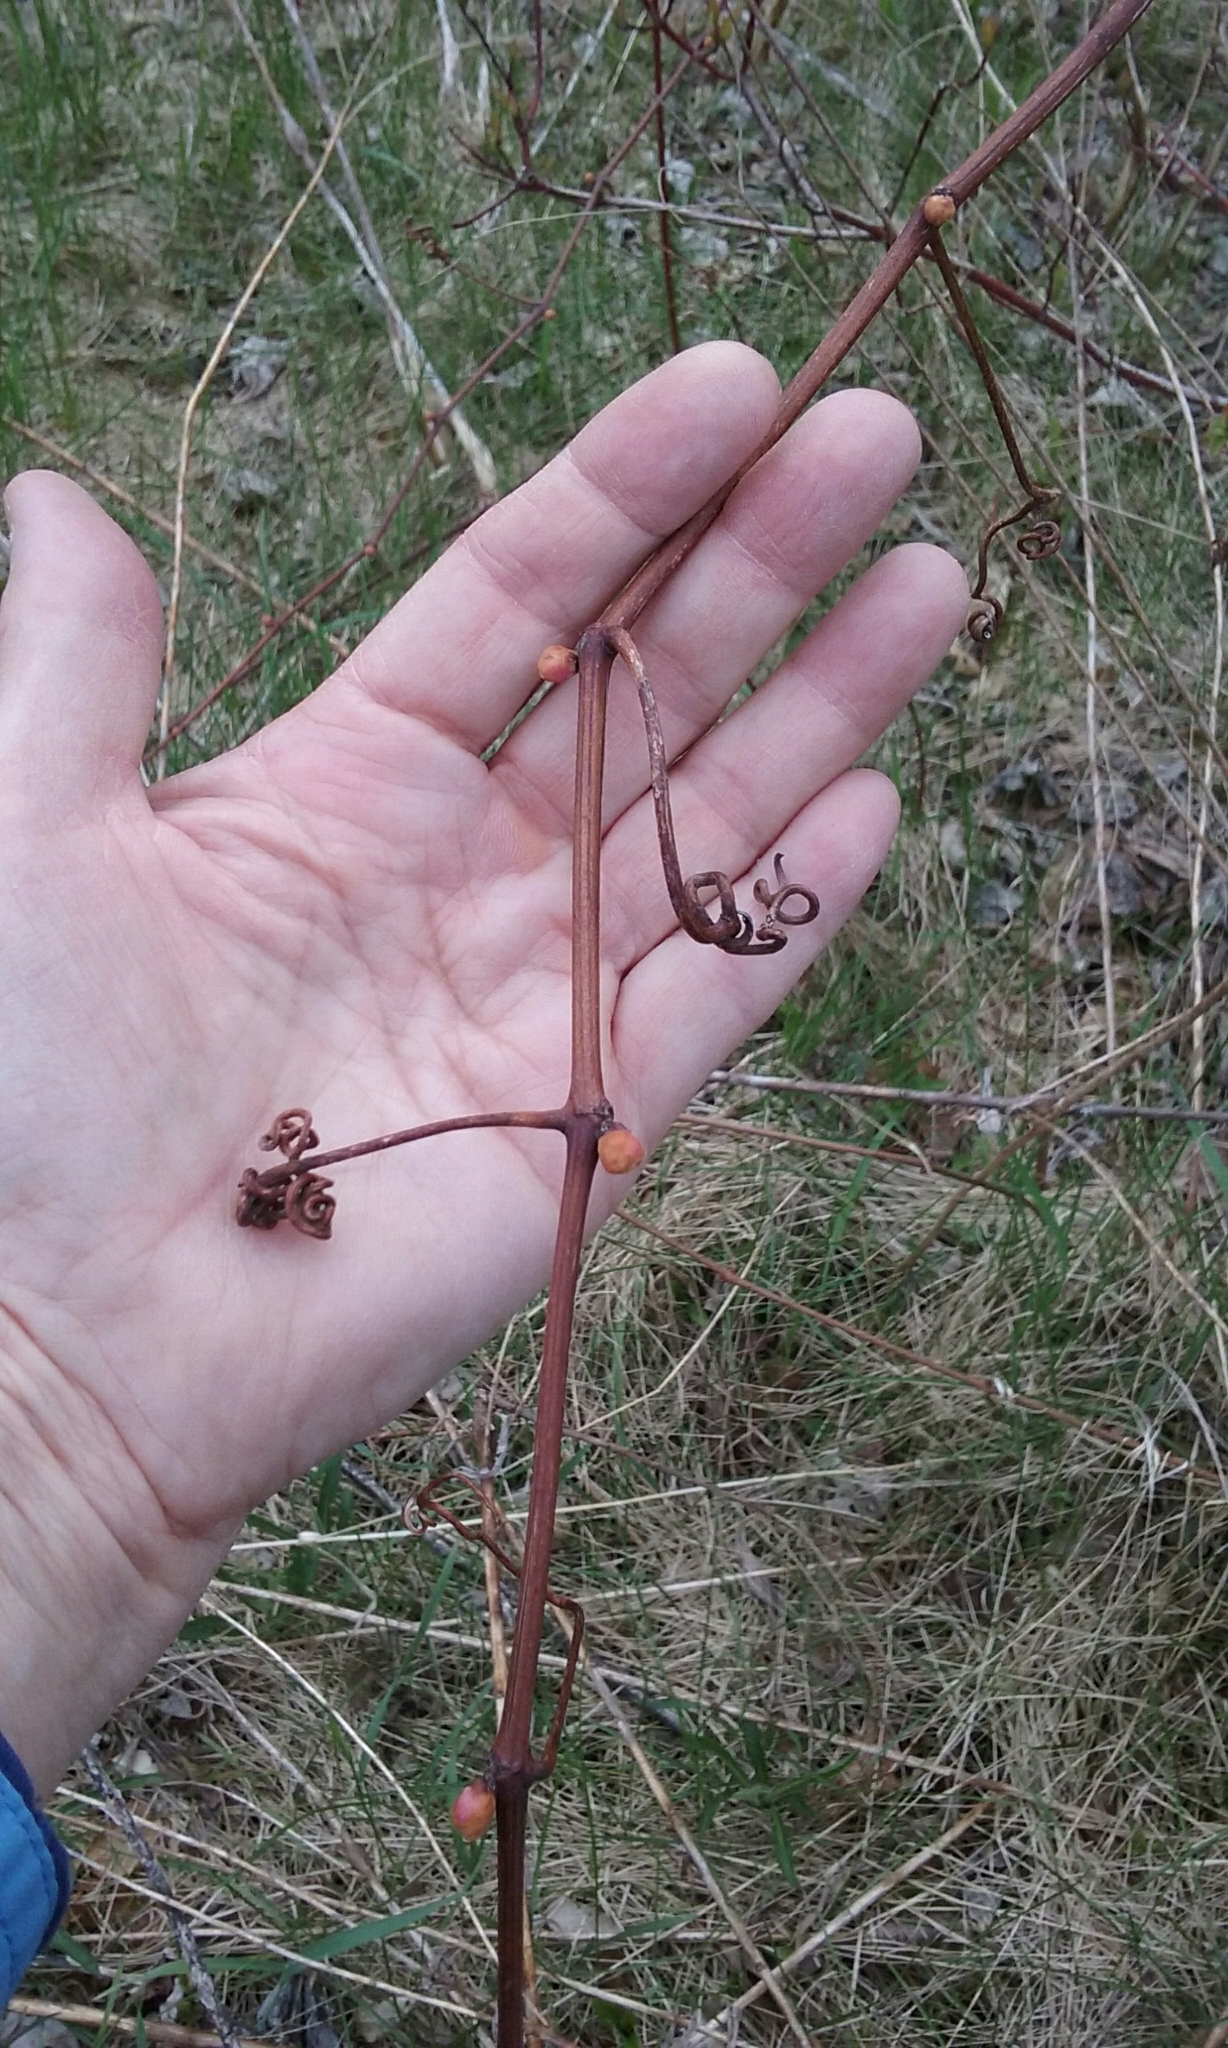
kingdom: Plantae
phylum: Tracheophyta
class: Magnoliopsida
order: Vitales
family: Vitaceae
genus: Vitis
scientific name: Vitis
